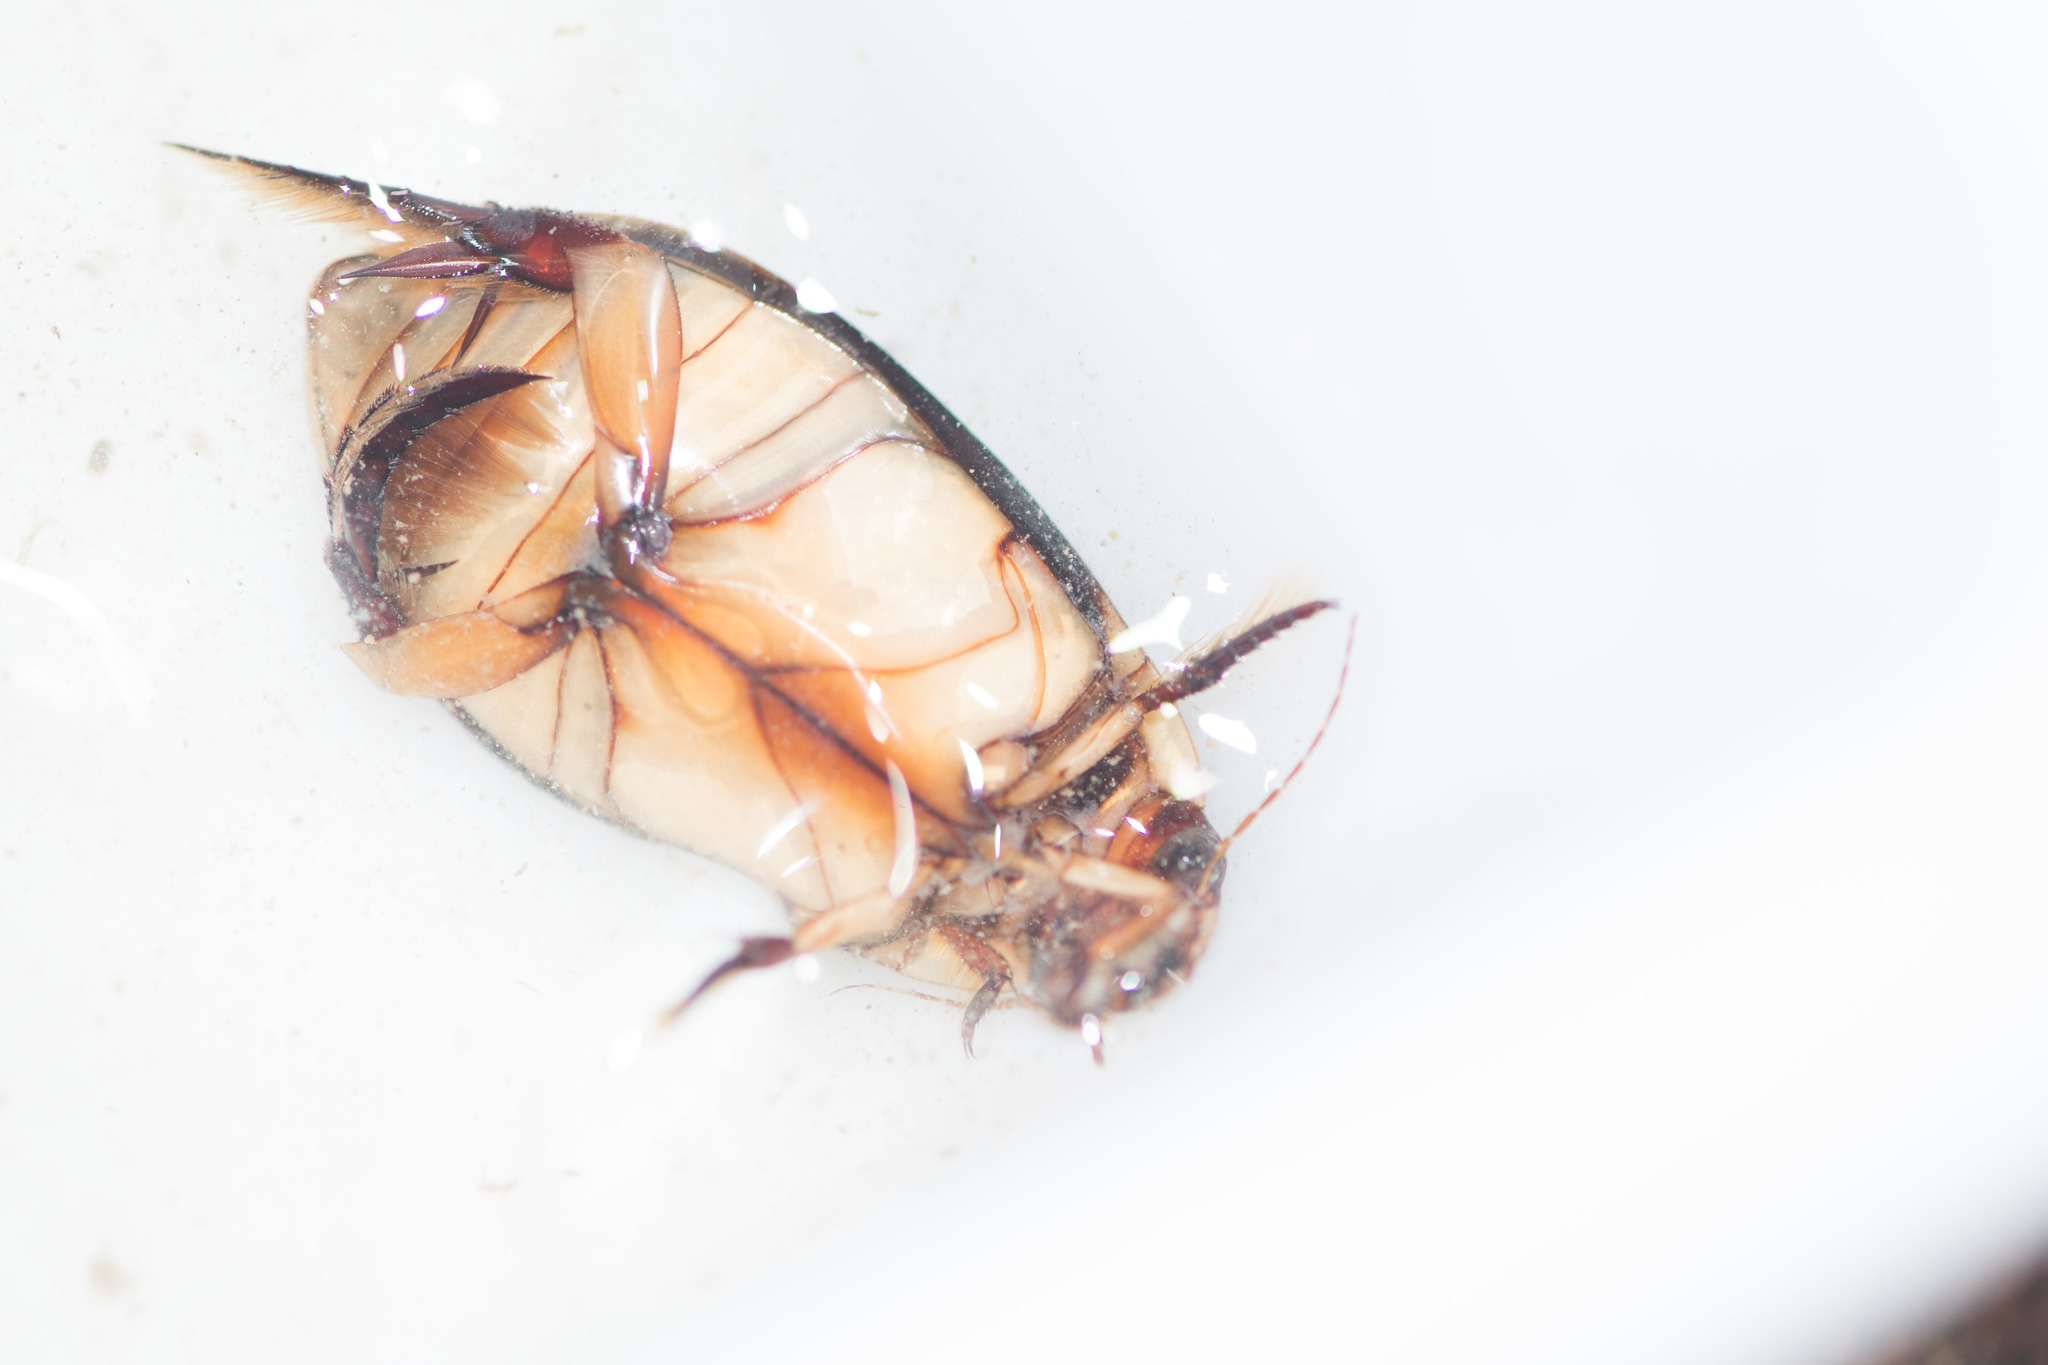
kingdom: Animalia
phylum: Arthropoda
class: Insecta
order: Coleoptera
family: Dytiscidae
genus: Cybister
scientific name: Cybister lateralimarginalis
